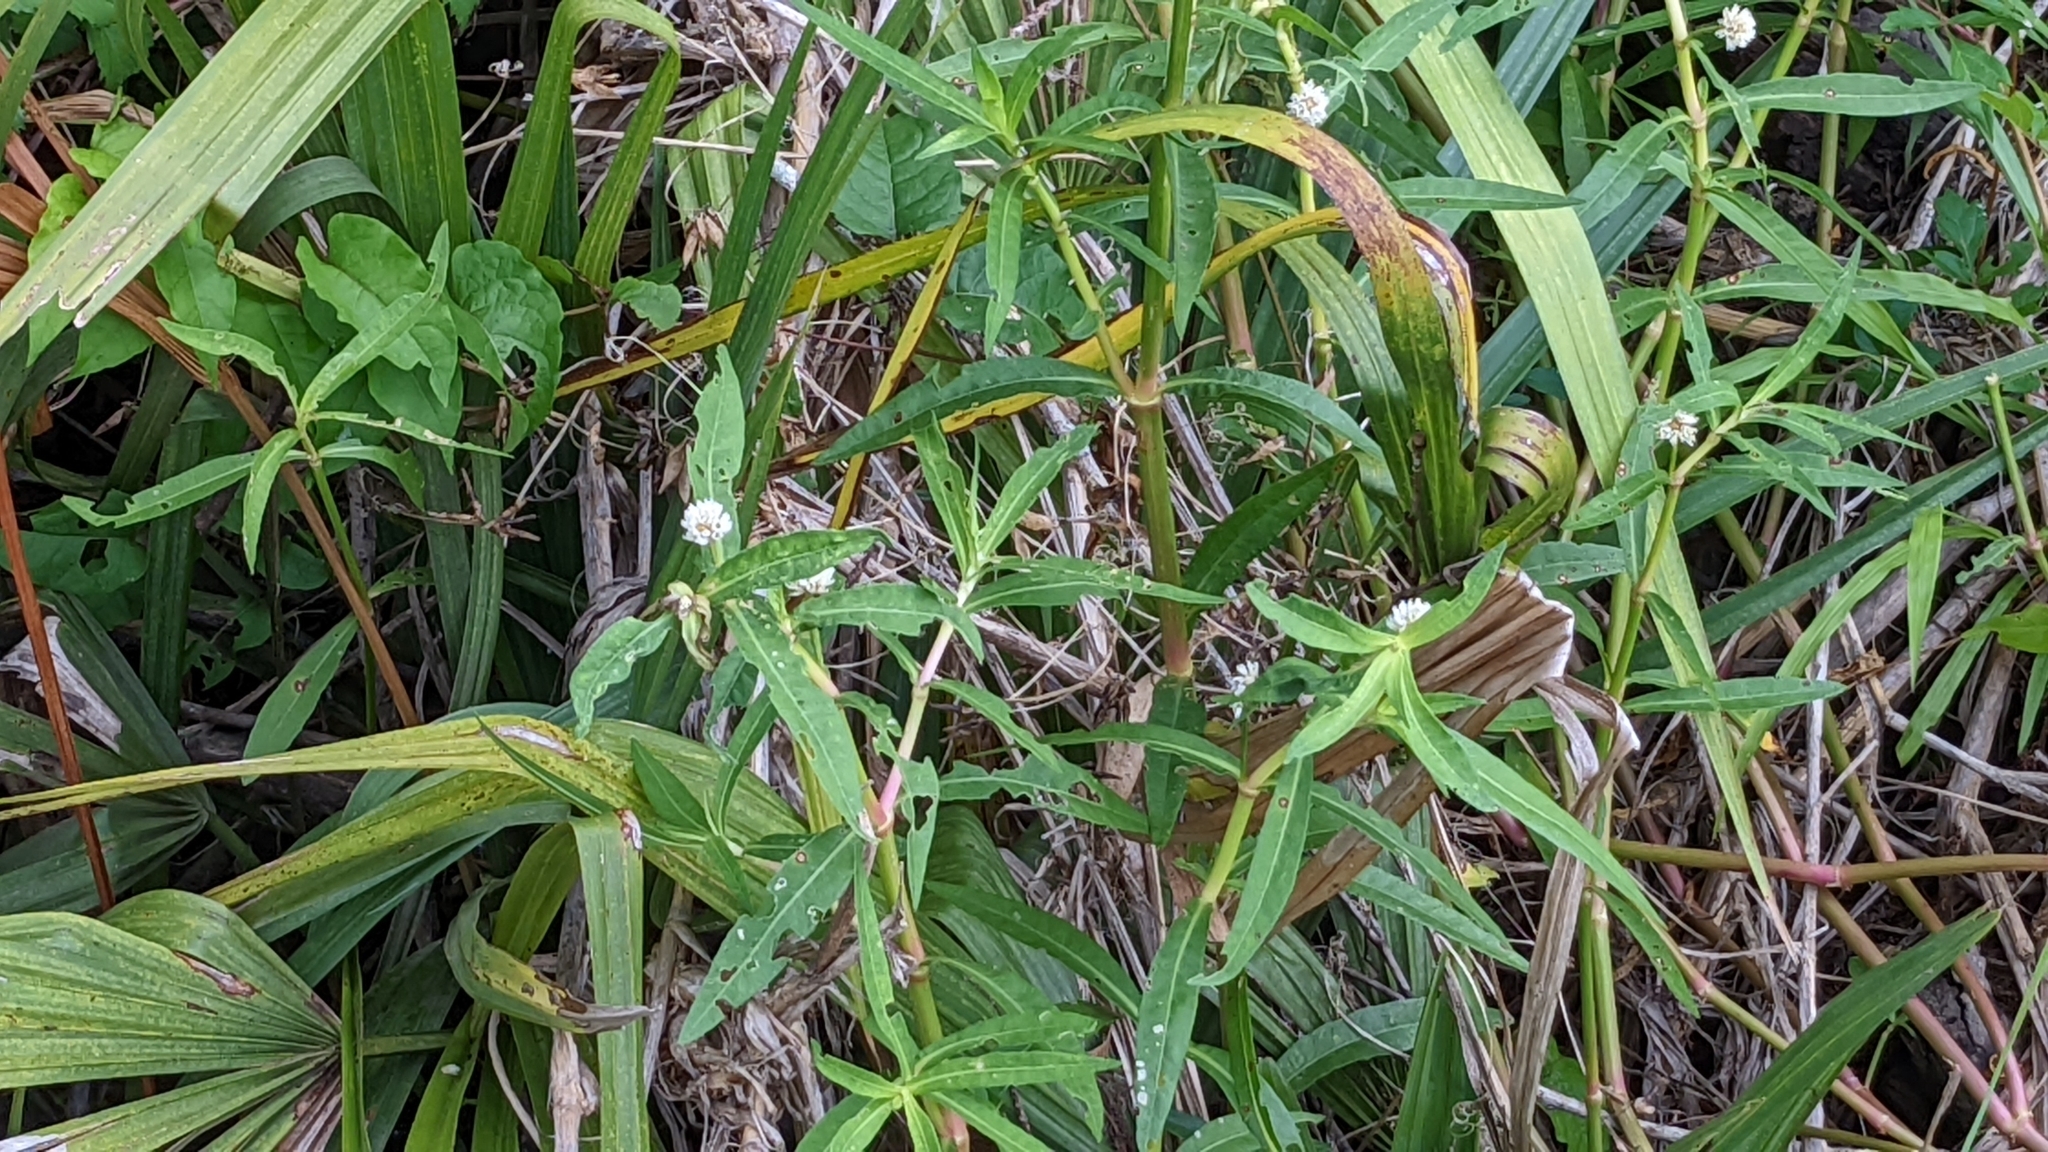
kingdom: Plantae
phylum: Tracheophyta
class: Magnoliopsida
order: Caryophyllales
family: Amaranthaceae
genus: Alternanthera
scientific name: Alternanthera philoxeroides
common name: Alligatorweed
